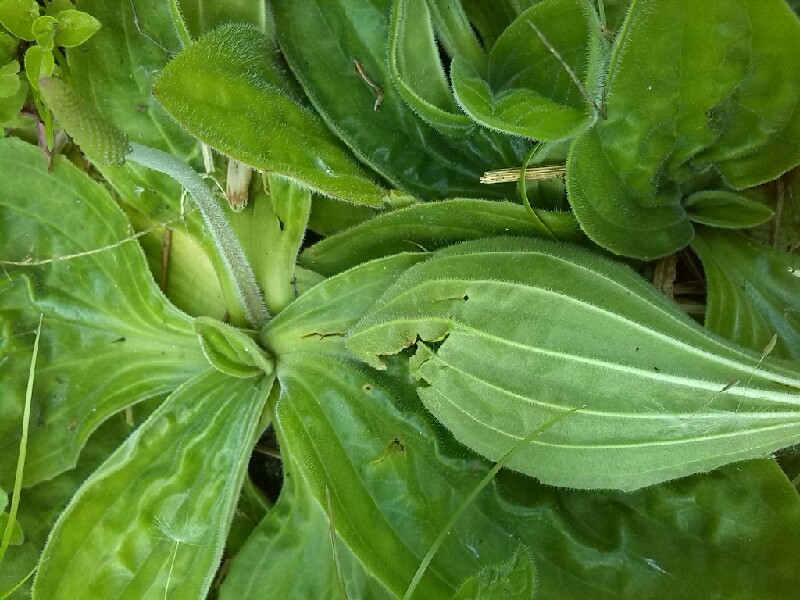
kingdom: Plantae
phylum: Tracheophyta
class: Magnoliopsida
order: Lamiales
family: Plantaginaceae
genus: Plantago
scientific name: Plantago media
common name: Hoary plantain
